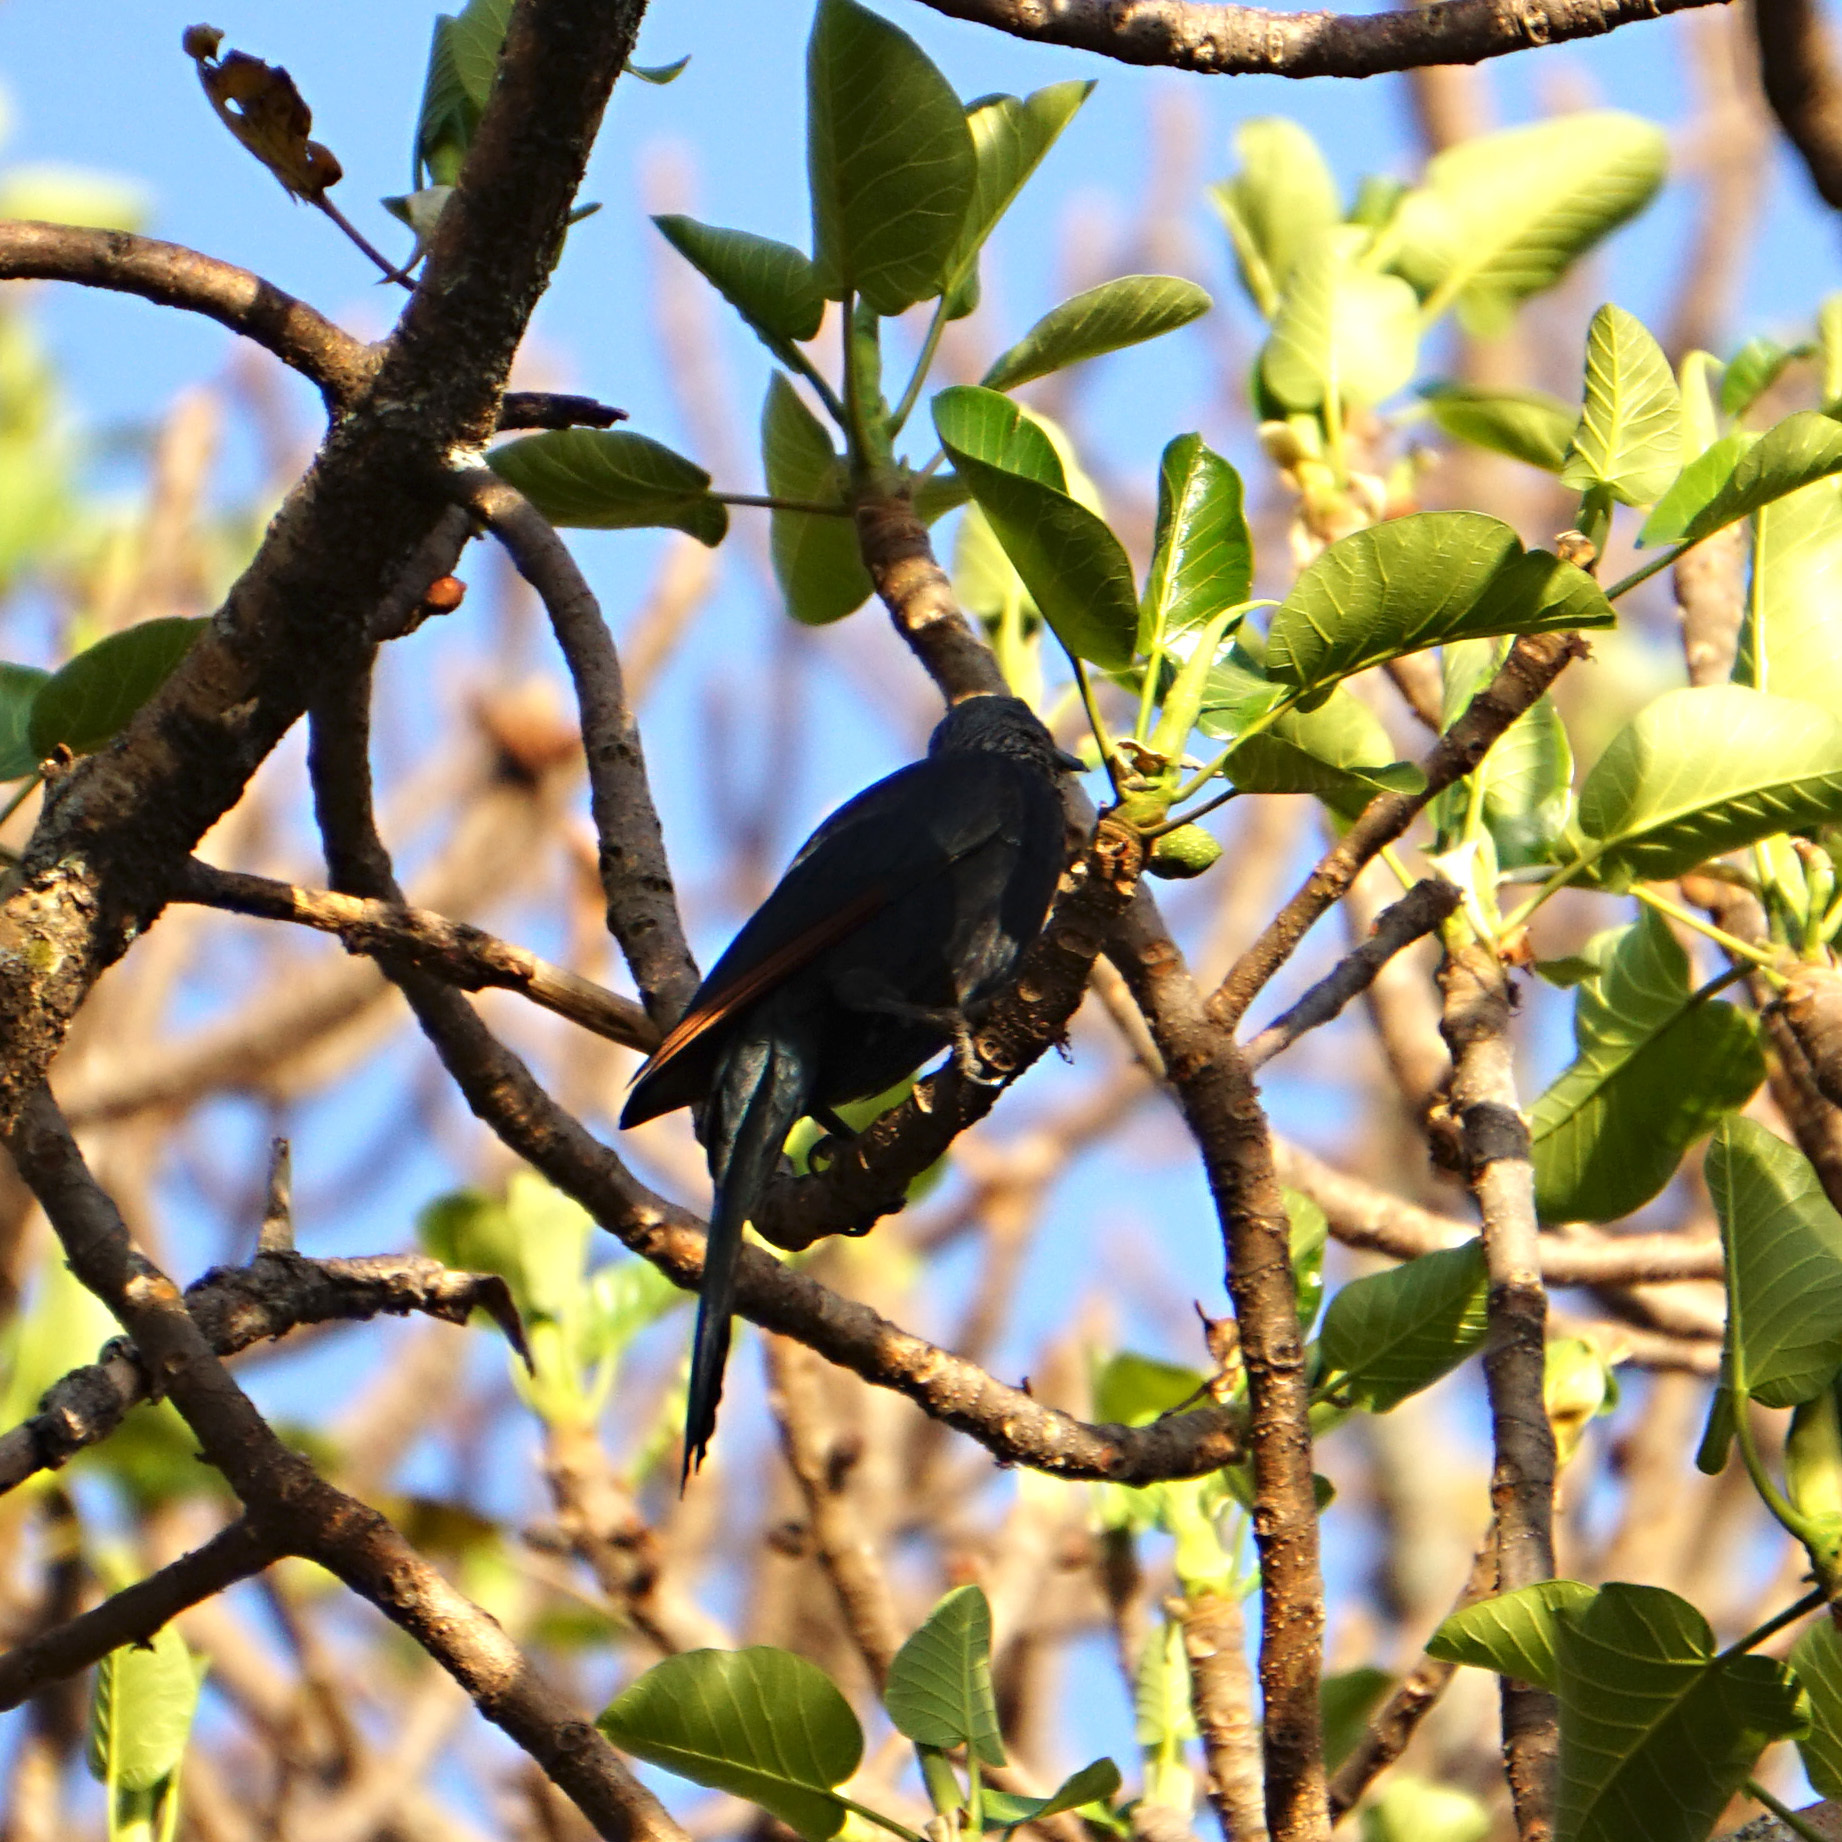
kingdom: Animalia
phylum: Chordata
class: Aves
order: Passeriformes
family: Sturnidae
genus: Onychognathus
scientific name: Onychognathus morio
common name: Red-winged starling
